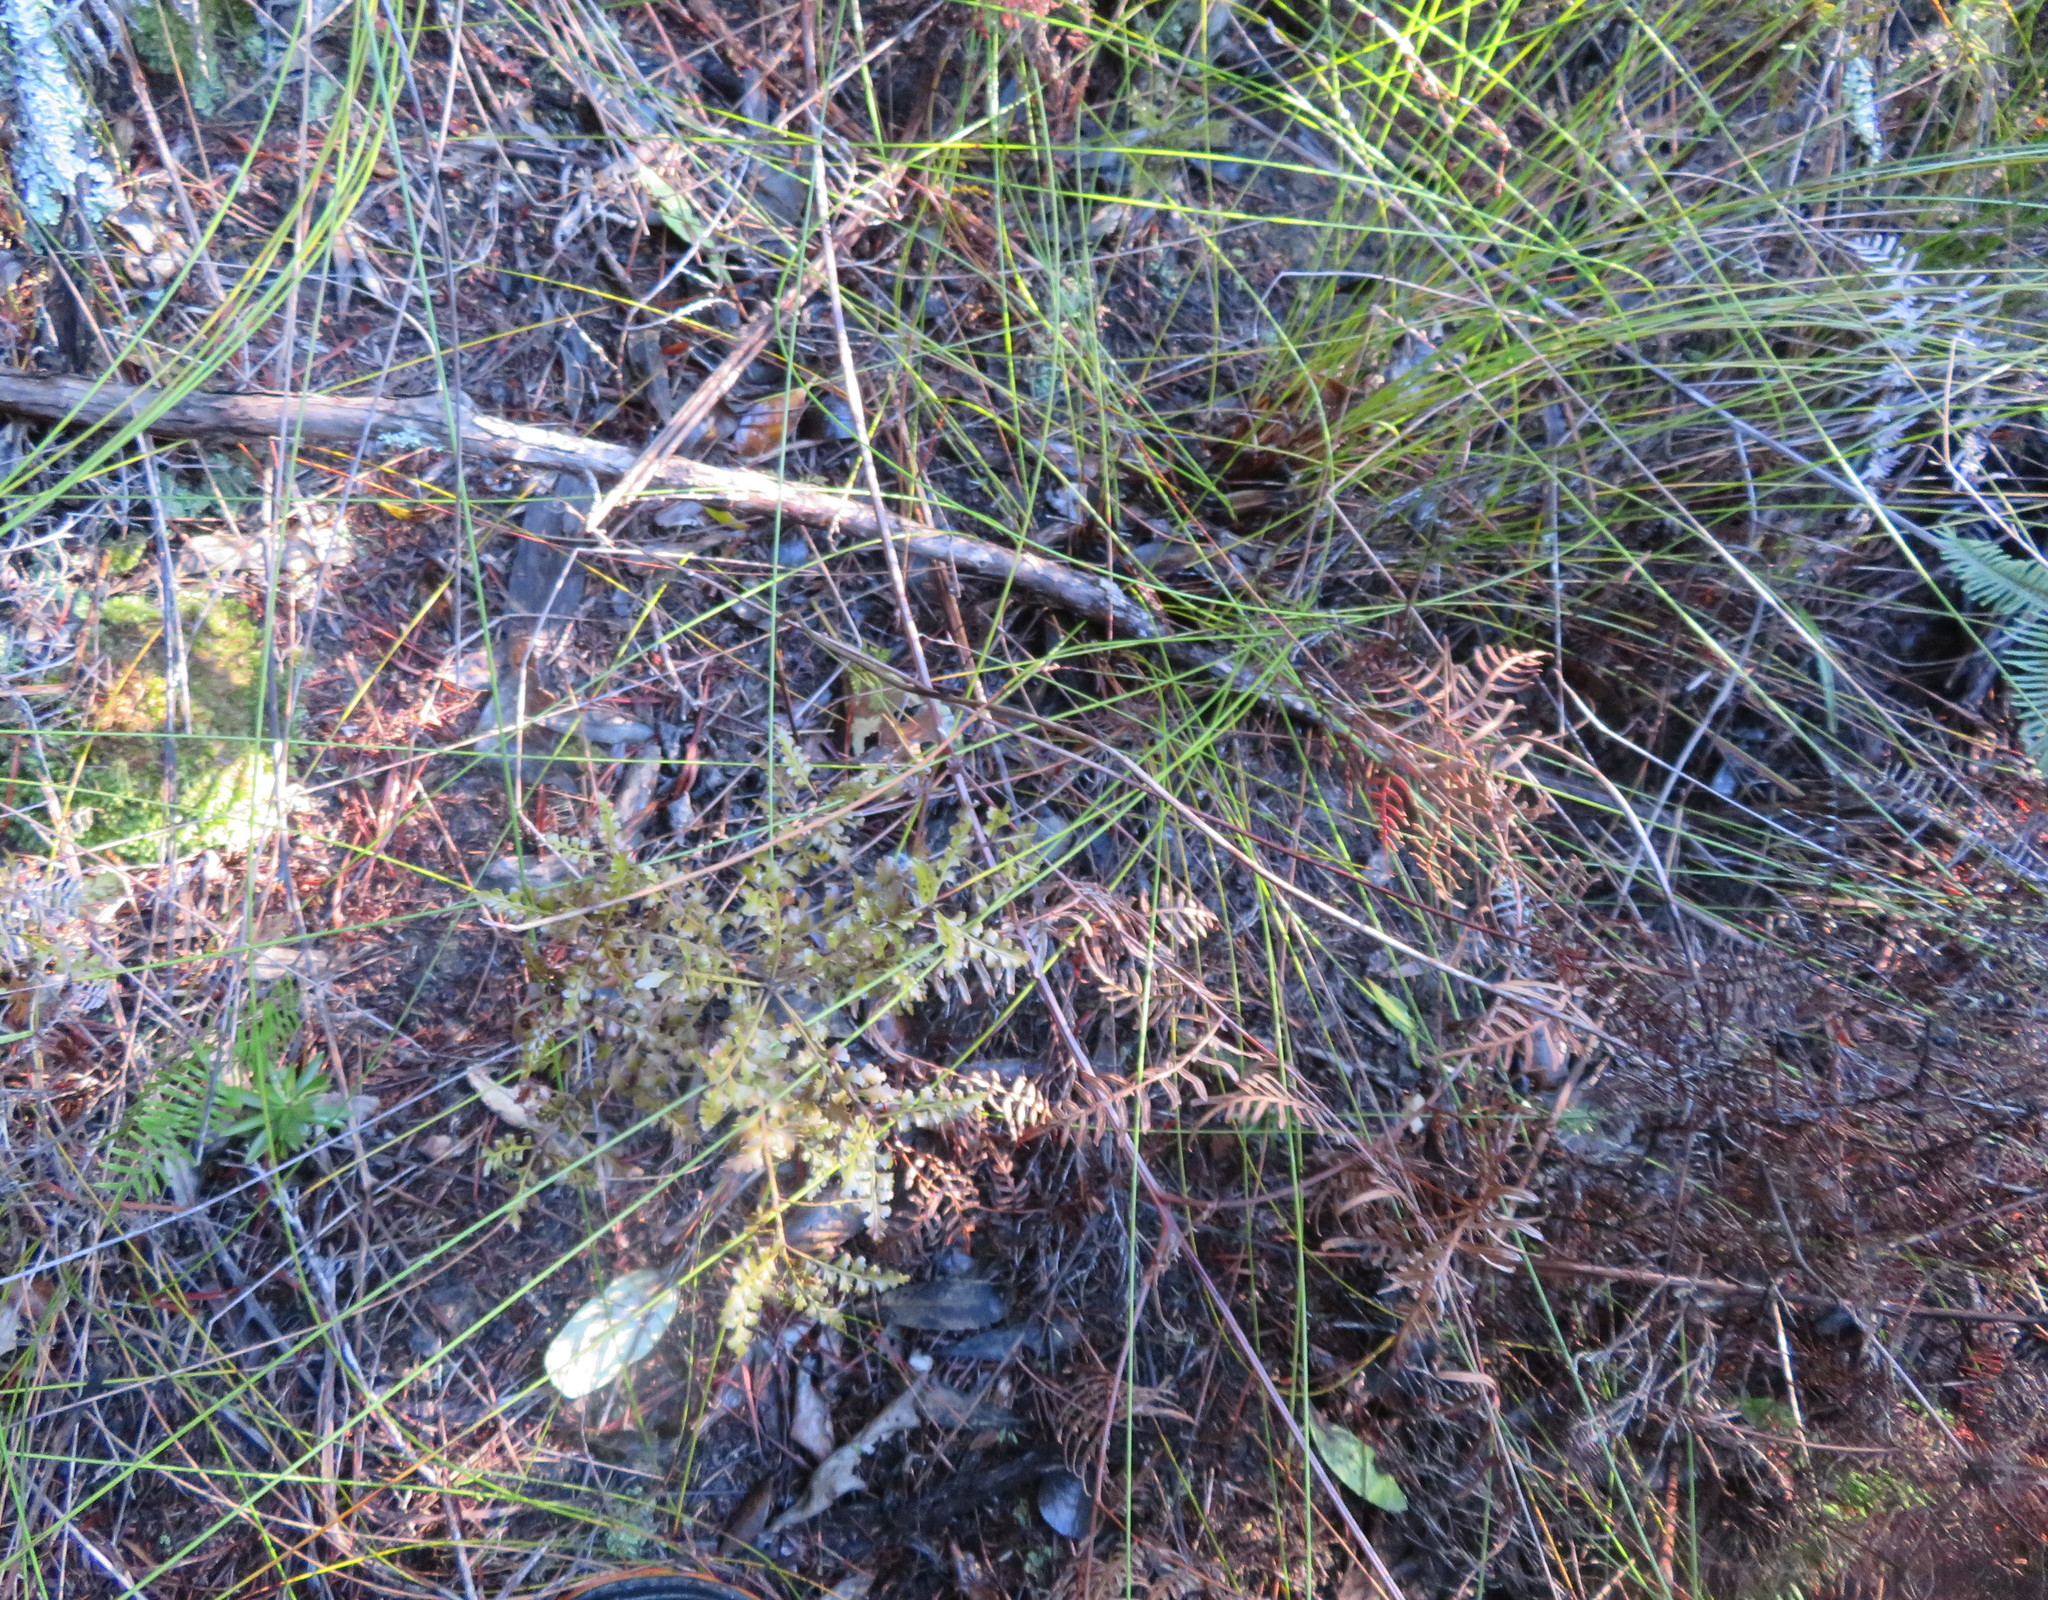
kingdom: Plantae
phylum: Tracheophyta
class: Polypodiopsida
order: Polypodiales
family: Dennstaedtiaceae
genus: Pteridium
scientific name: Pteridium esculentum
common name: Bracken fern
